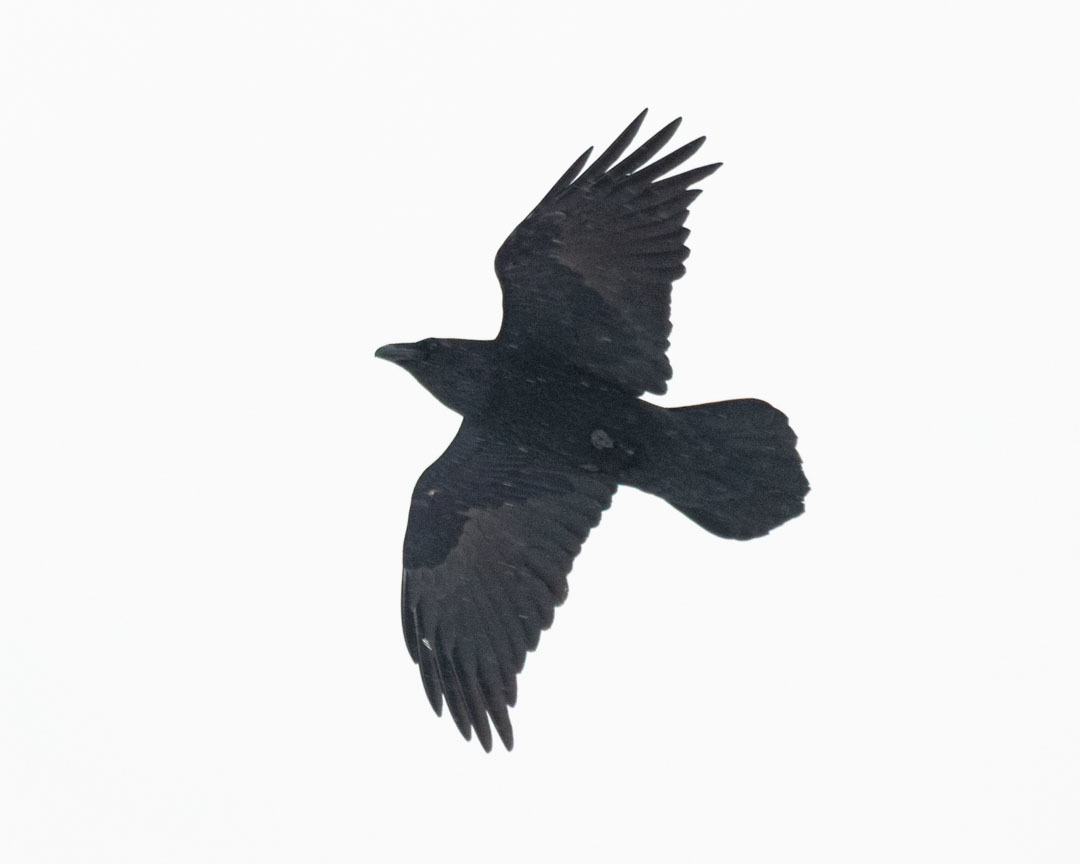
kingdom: Animalia
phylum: Chordata
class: Aves
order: Passeriformes
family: Corvidae
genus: Corvus
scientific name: Corvus corax
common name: Common raven
